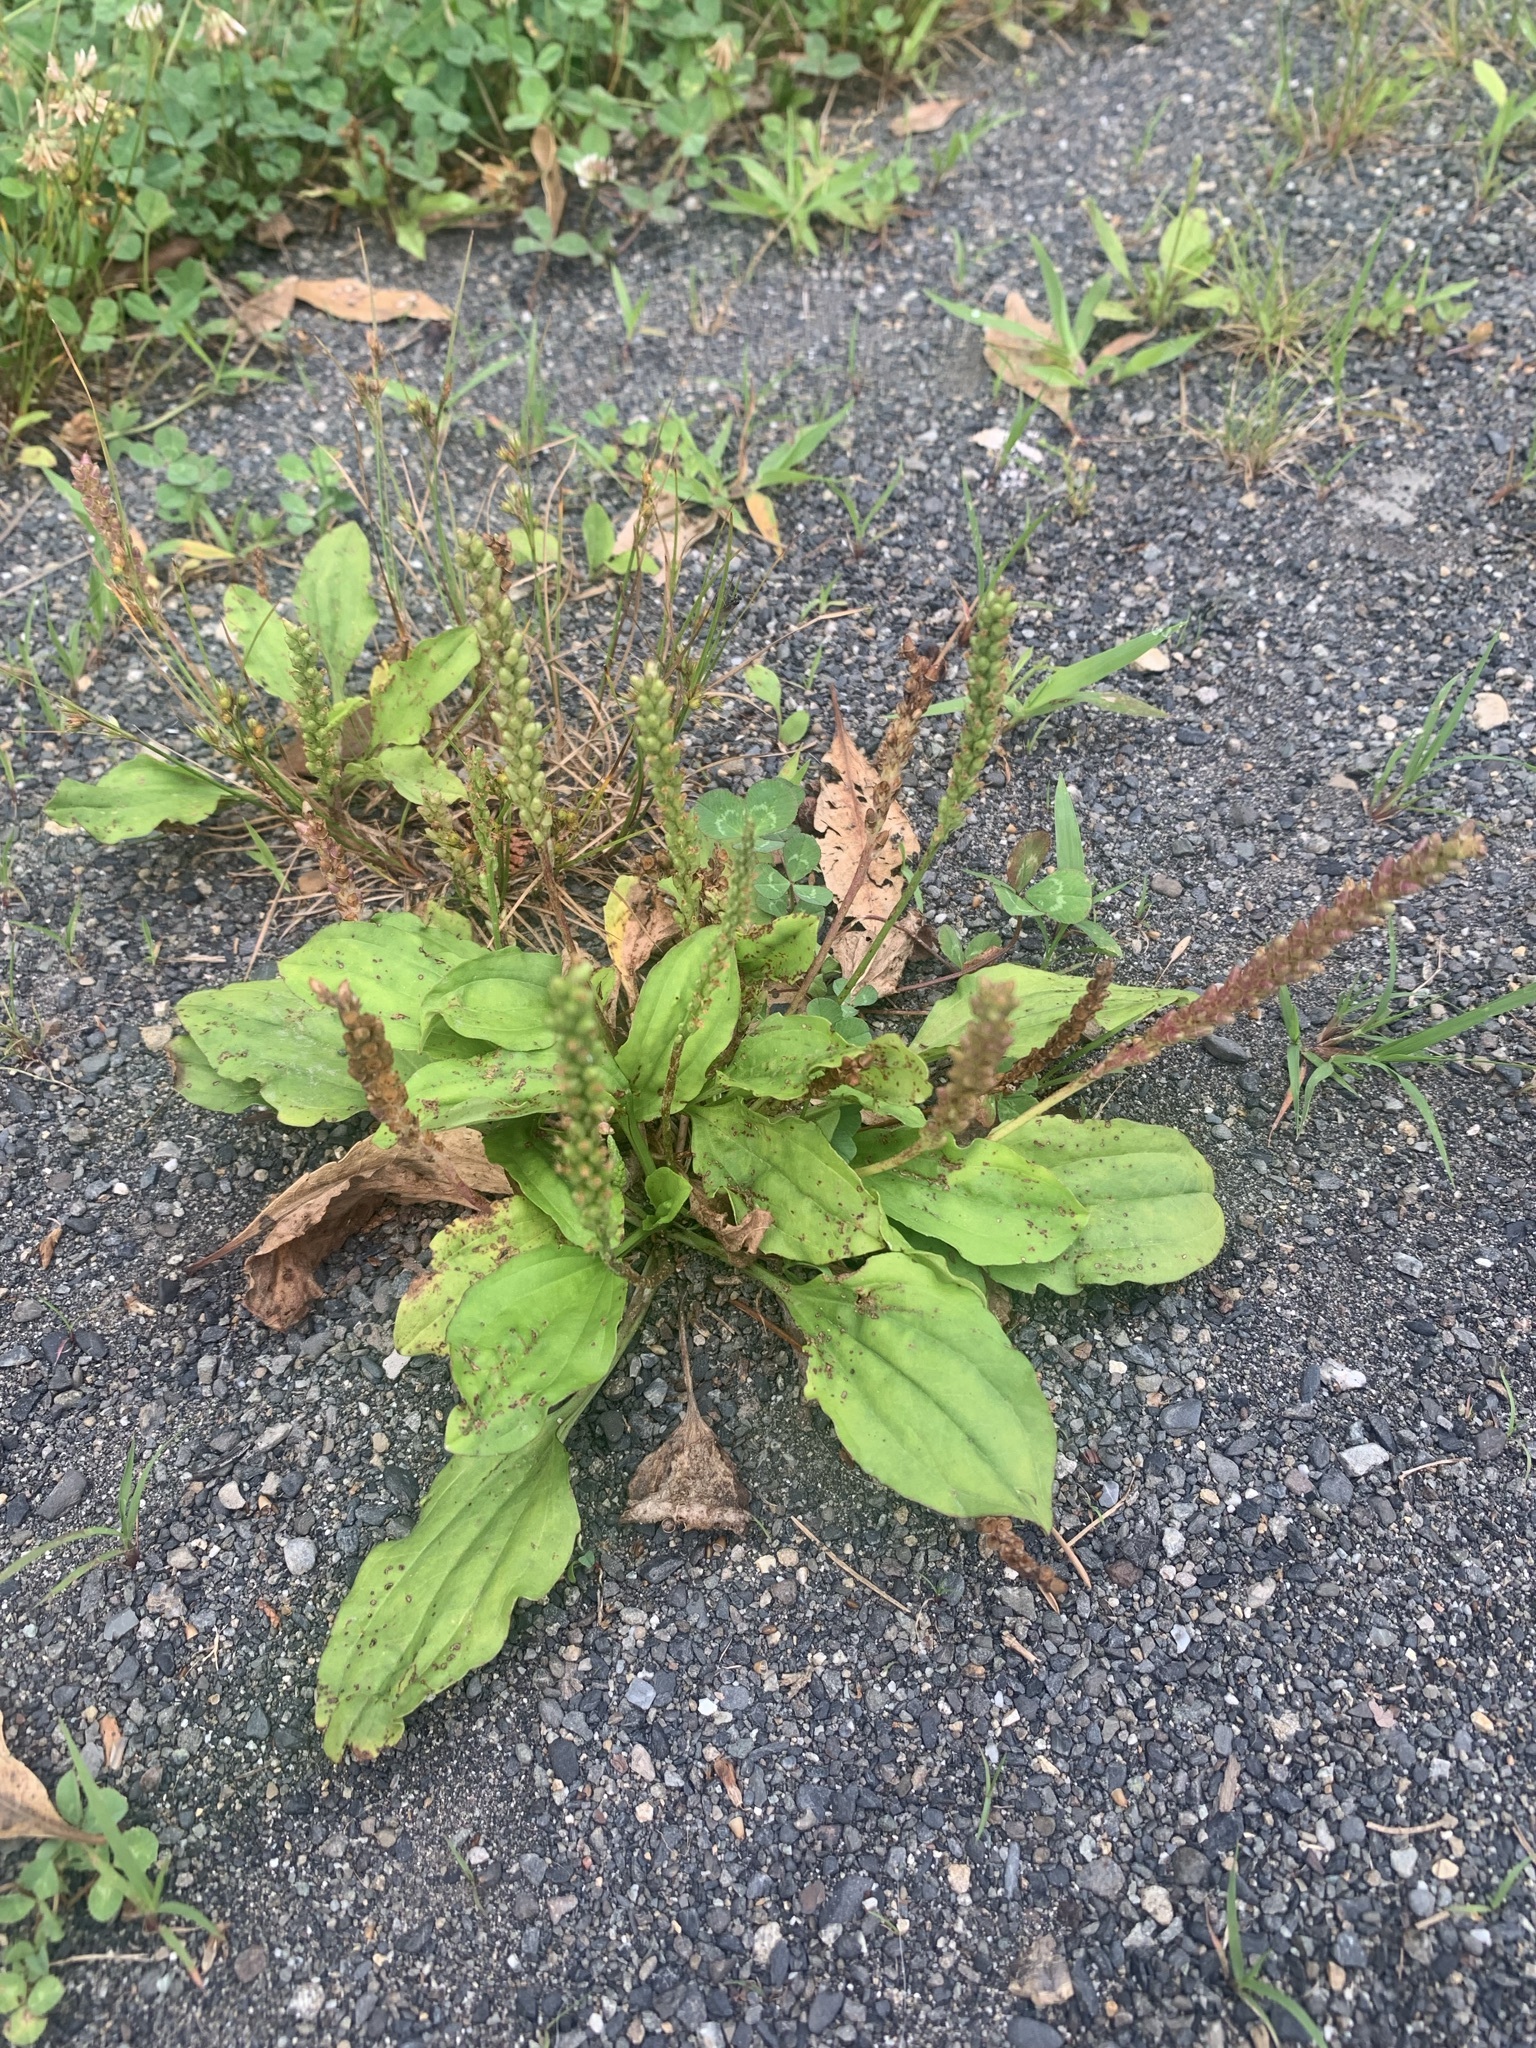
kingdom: Plantae
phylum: Tracheophyta
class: Magnoliopsida
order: Lamiales
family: Plantaginaceae
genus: Plantago
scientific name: Plantago asiatica
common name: Psyllium
